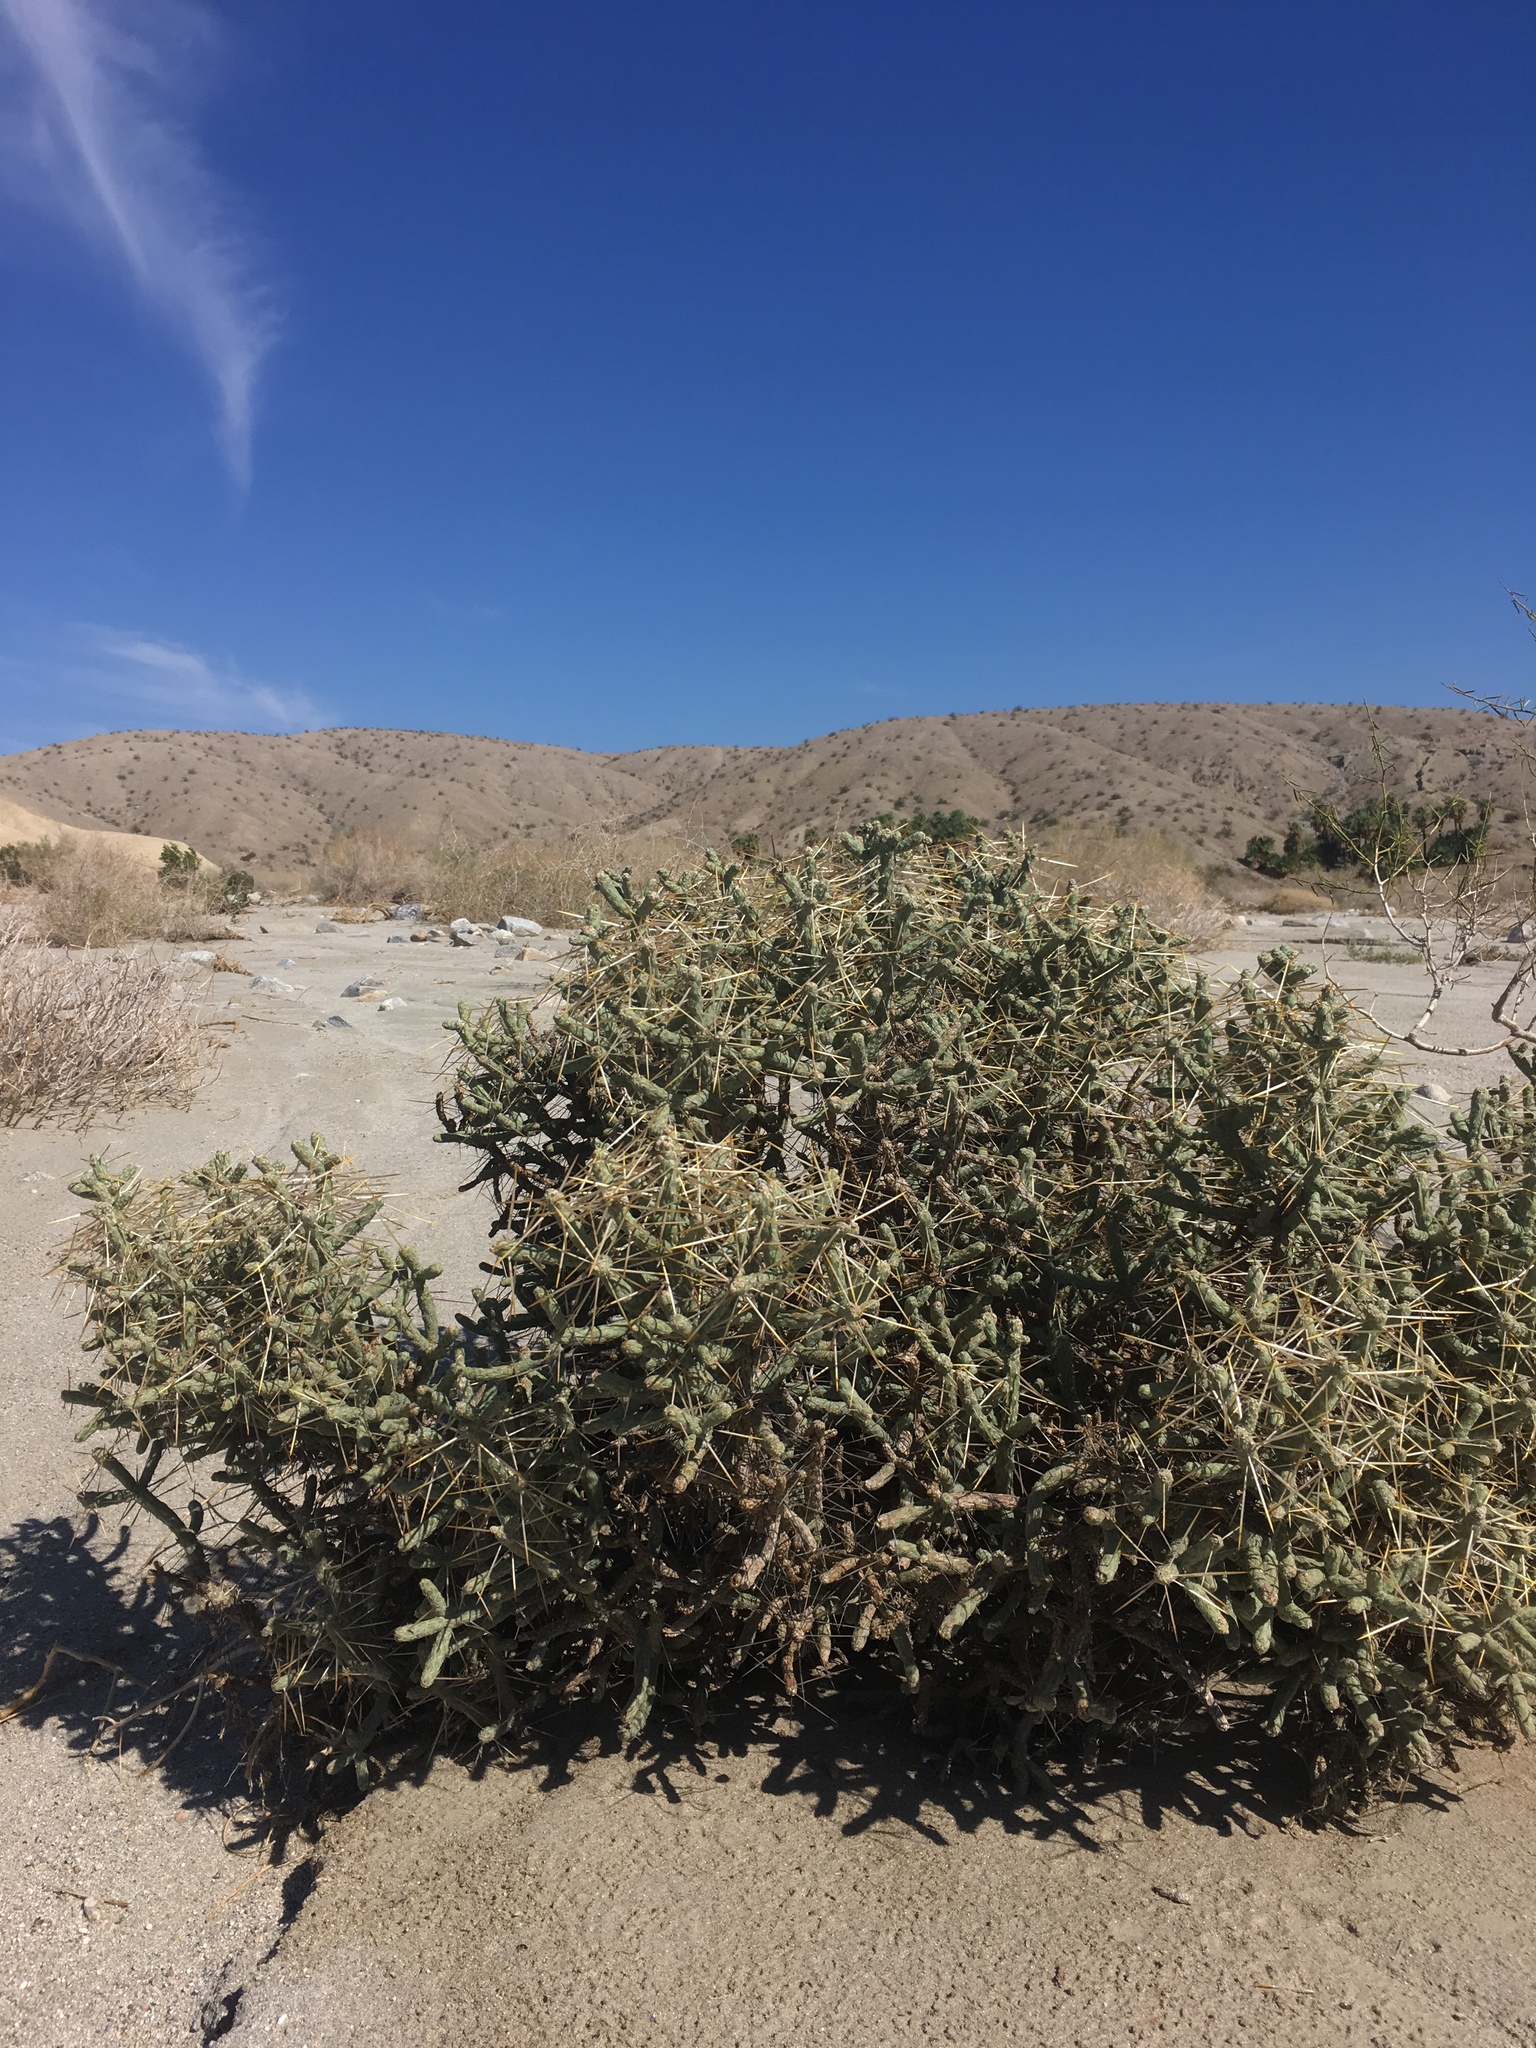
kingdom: Plantae
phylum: Tracheophyta
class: Magnoliopsida
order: Caryophyllales
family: Cactaceae
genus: Cylindropuntia
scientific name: Cylindropuntia ramosissima
